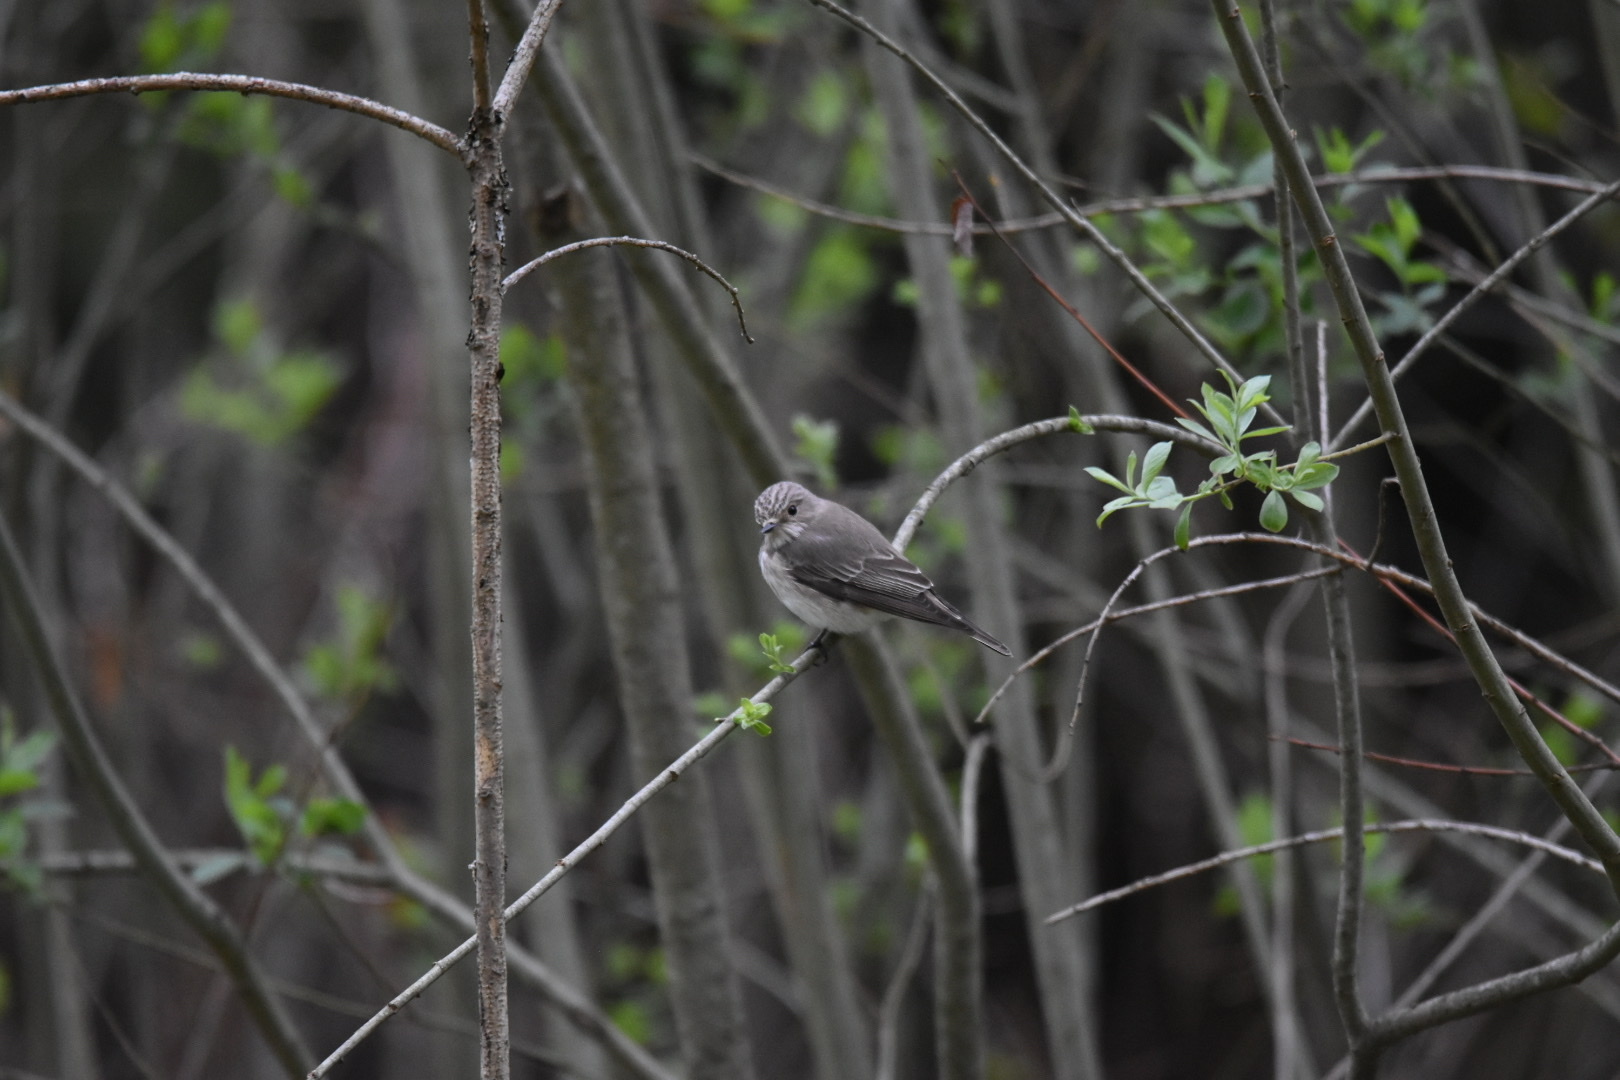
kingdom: Animalia
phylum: Chordata
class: Aves
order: Passeriformes
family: Muscicapidae
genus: Muscicapa
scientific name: Muscicapa striata
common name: Spotted flycatcher
